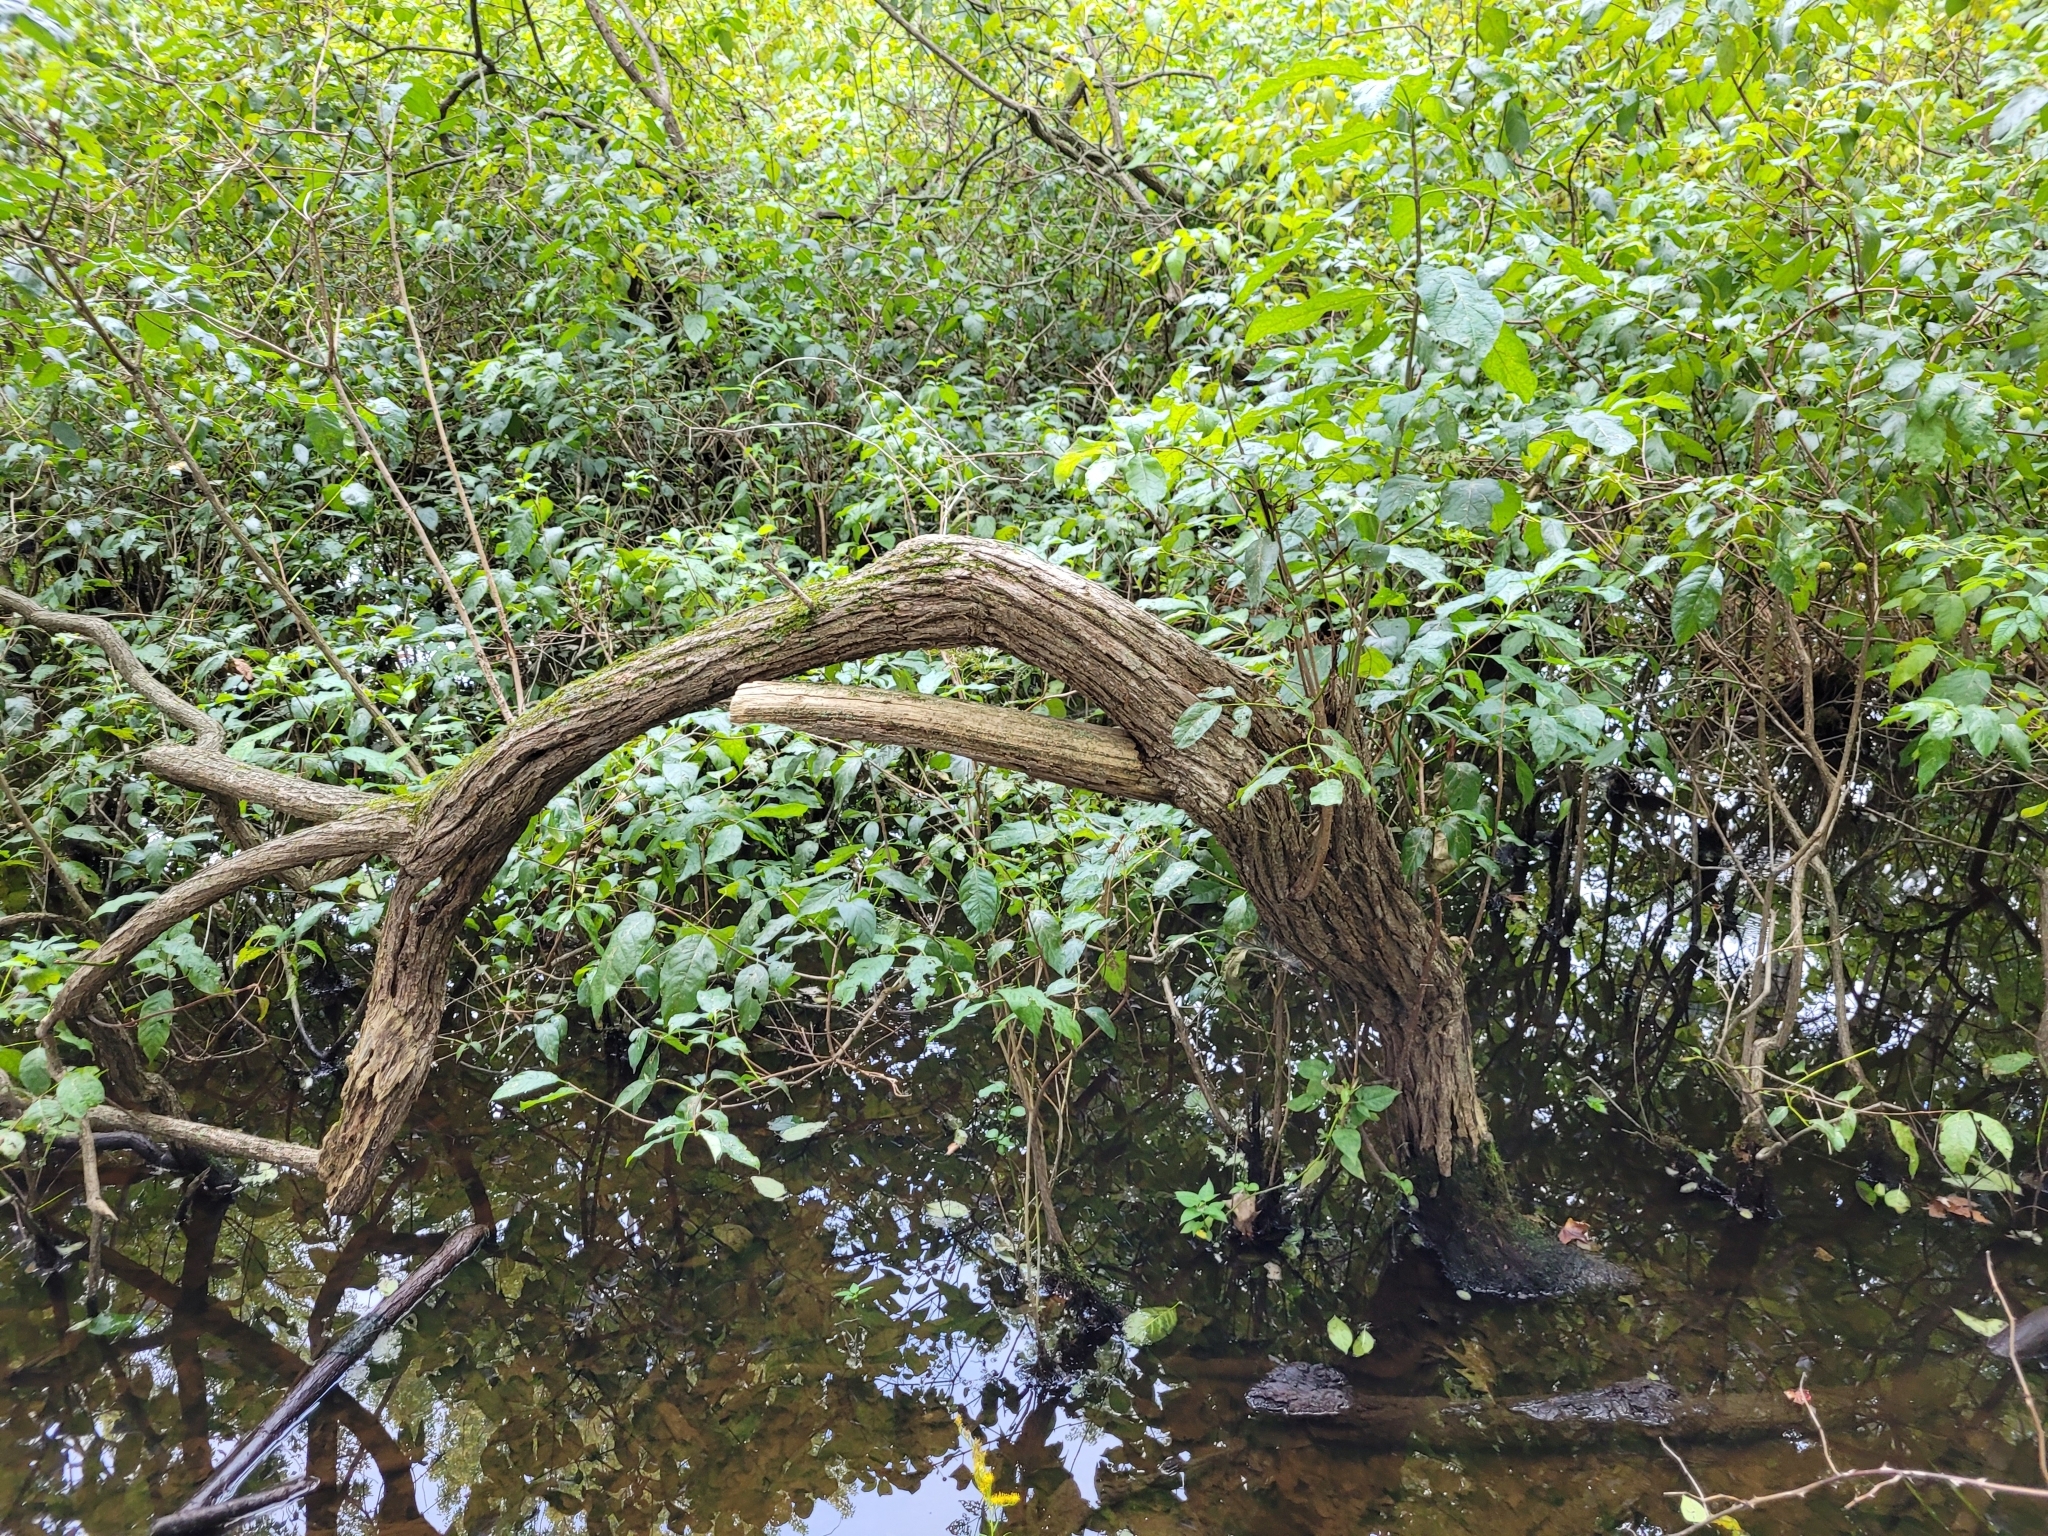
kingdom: Plantae
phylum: Tracheophyta
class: Magnoliopsida
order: Gentianales
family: Rubiaceae
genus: Cephalanthus
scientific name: Cephalanthus occidentalis
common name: Button-willow
